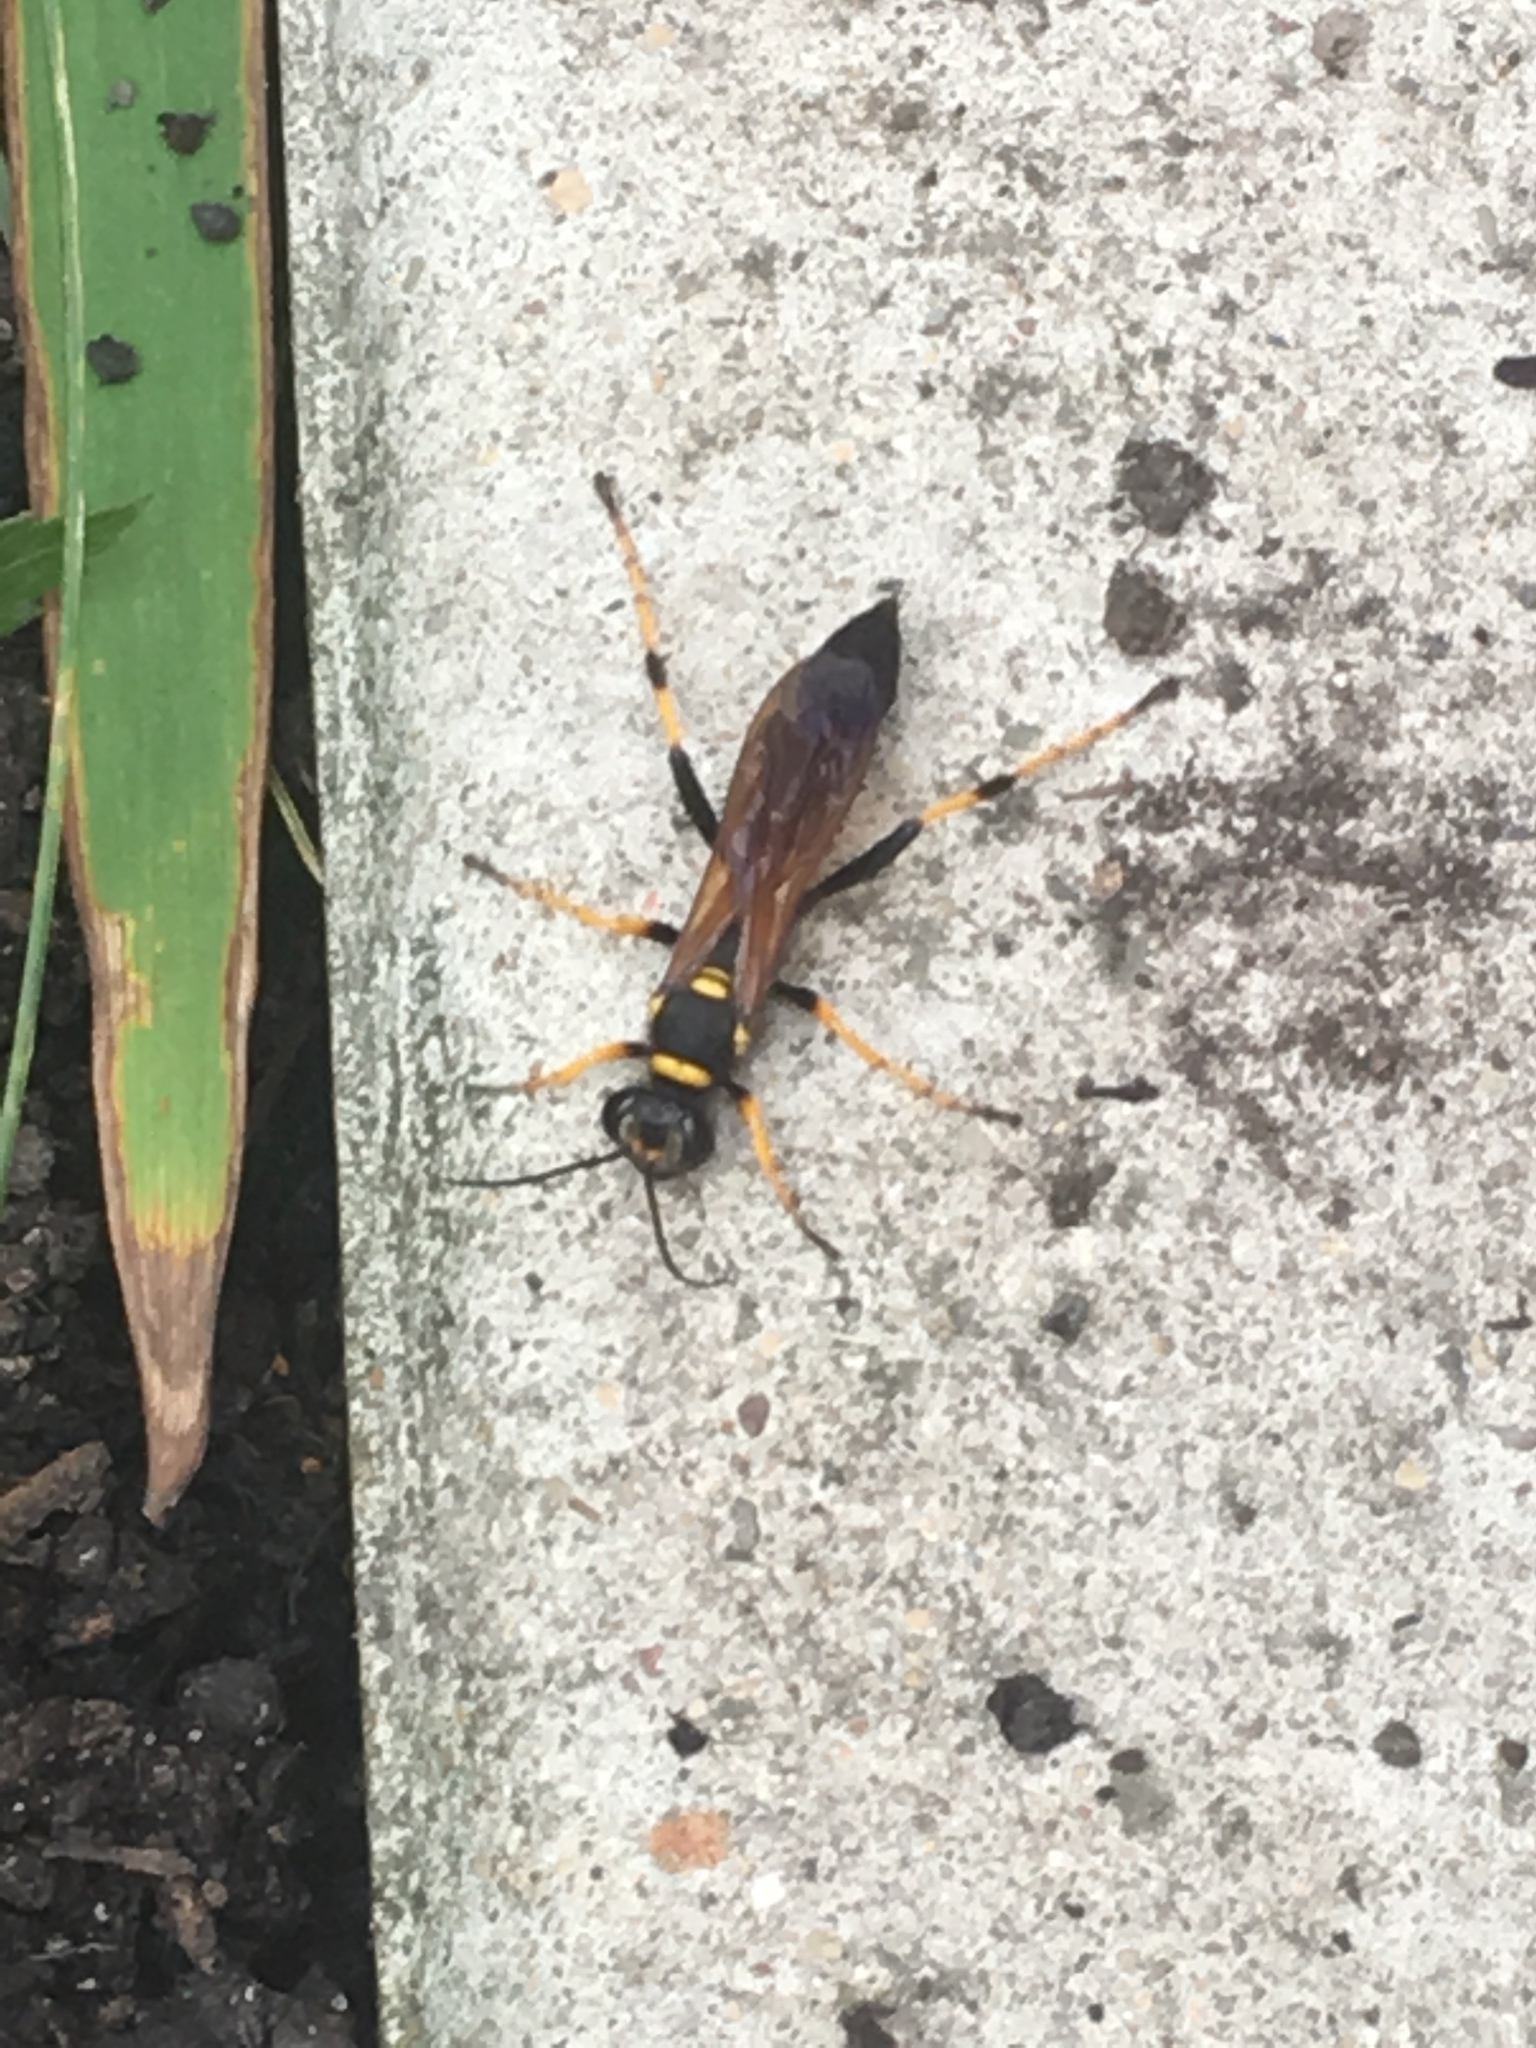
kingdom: Animalia
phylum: Arthropoda
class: Insecta
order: Hymenoptera
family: Sphecidae
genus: Sceliphron
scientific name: Sceliphron caementarium
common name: Mud dauber
